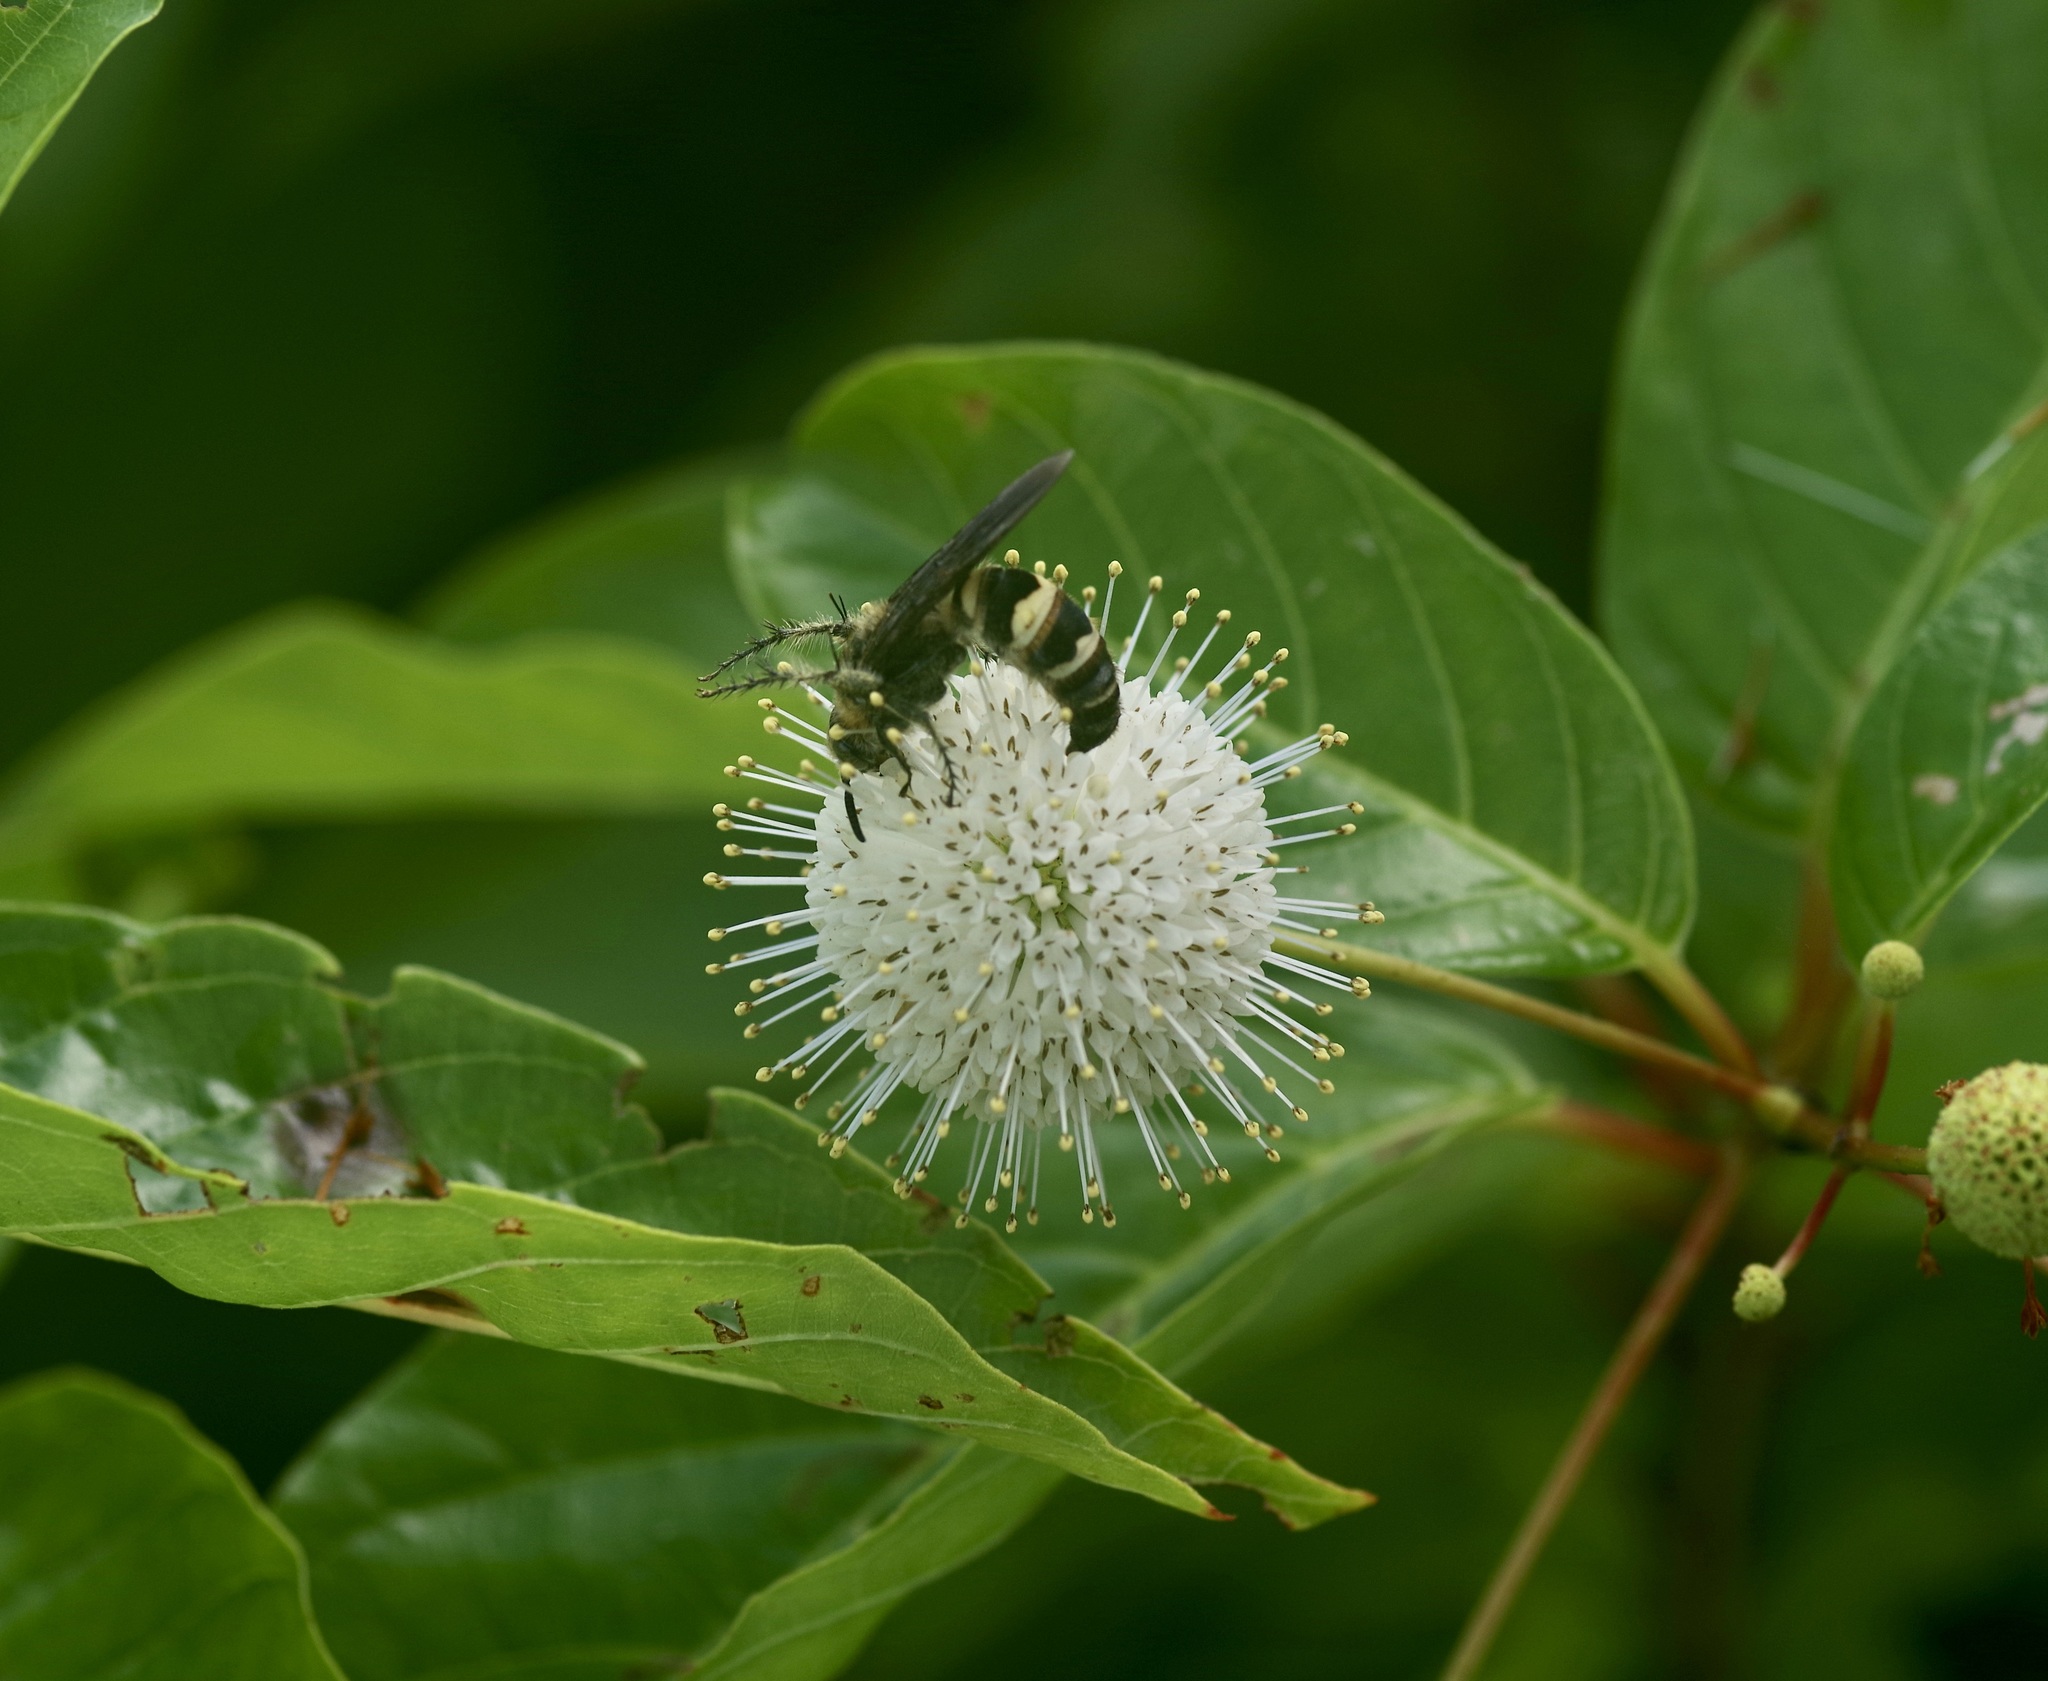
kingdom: Animalia
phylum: Arthropoda
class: Insecta
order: Hymenoptera
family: Scoliidae
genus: Dielis
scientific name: Dielis
